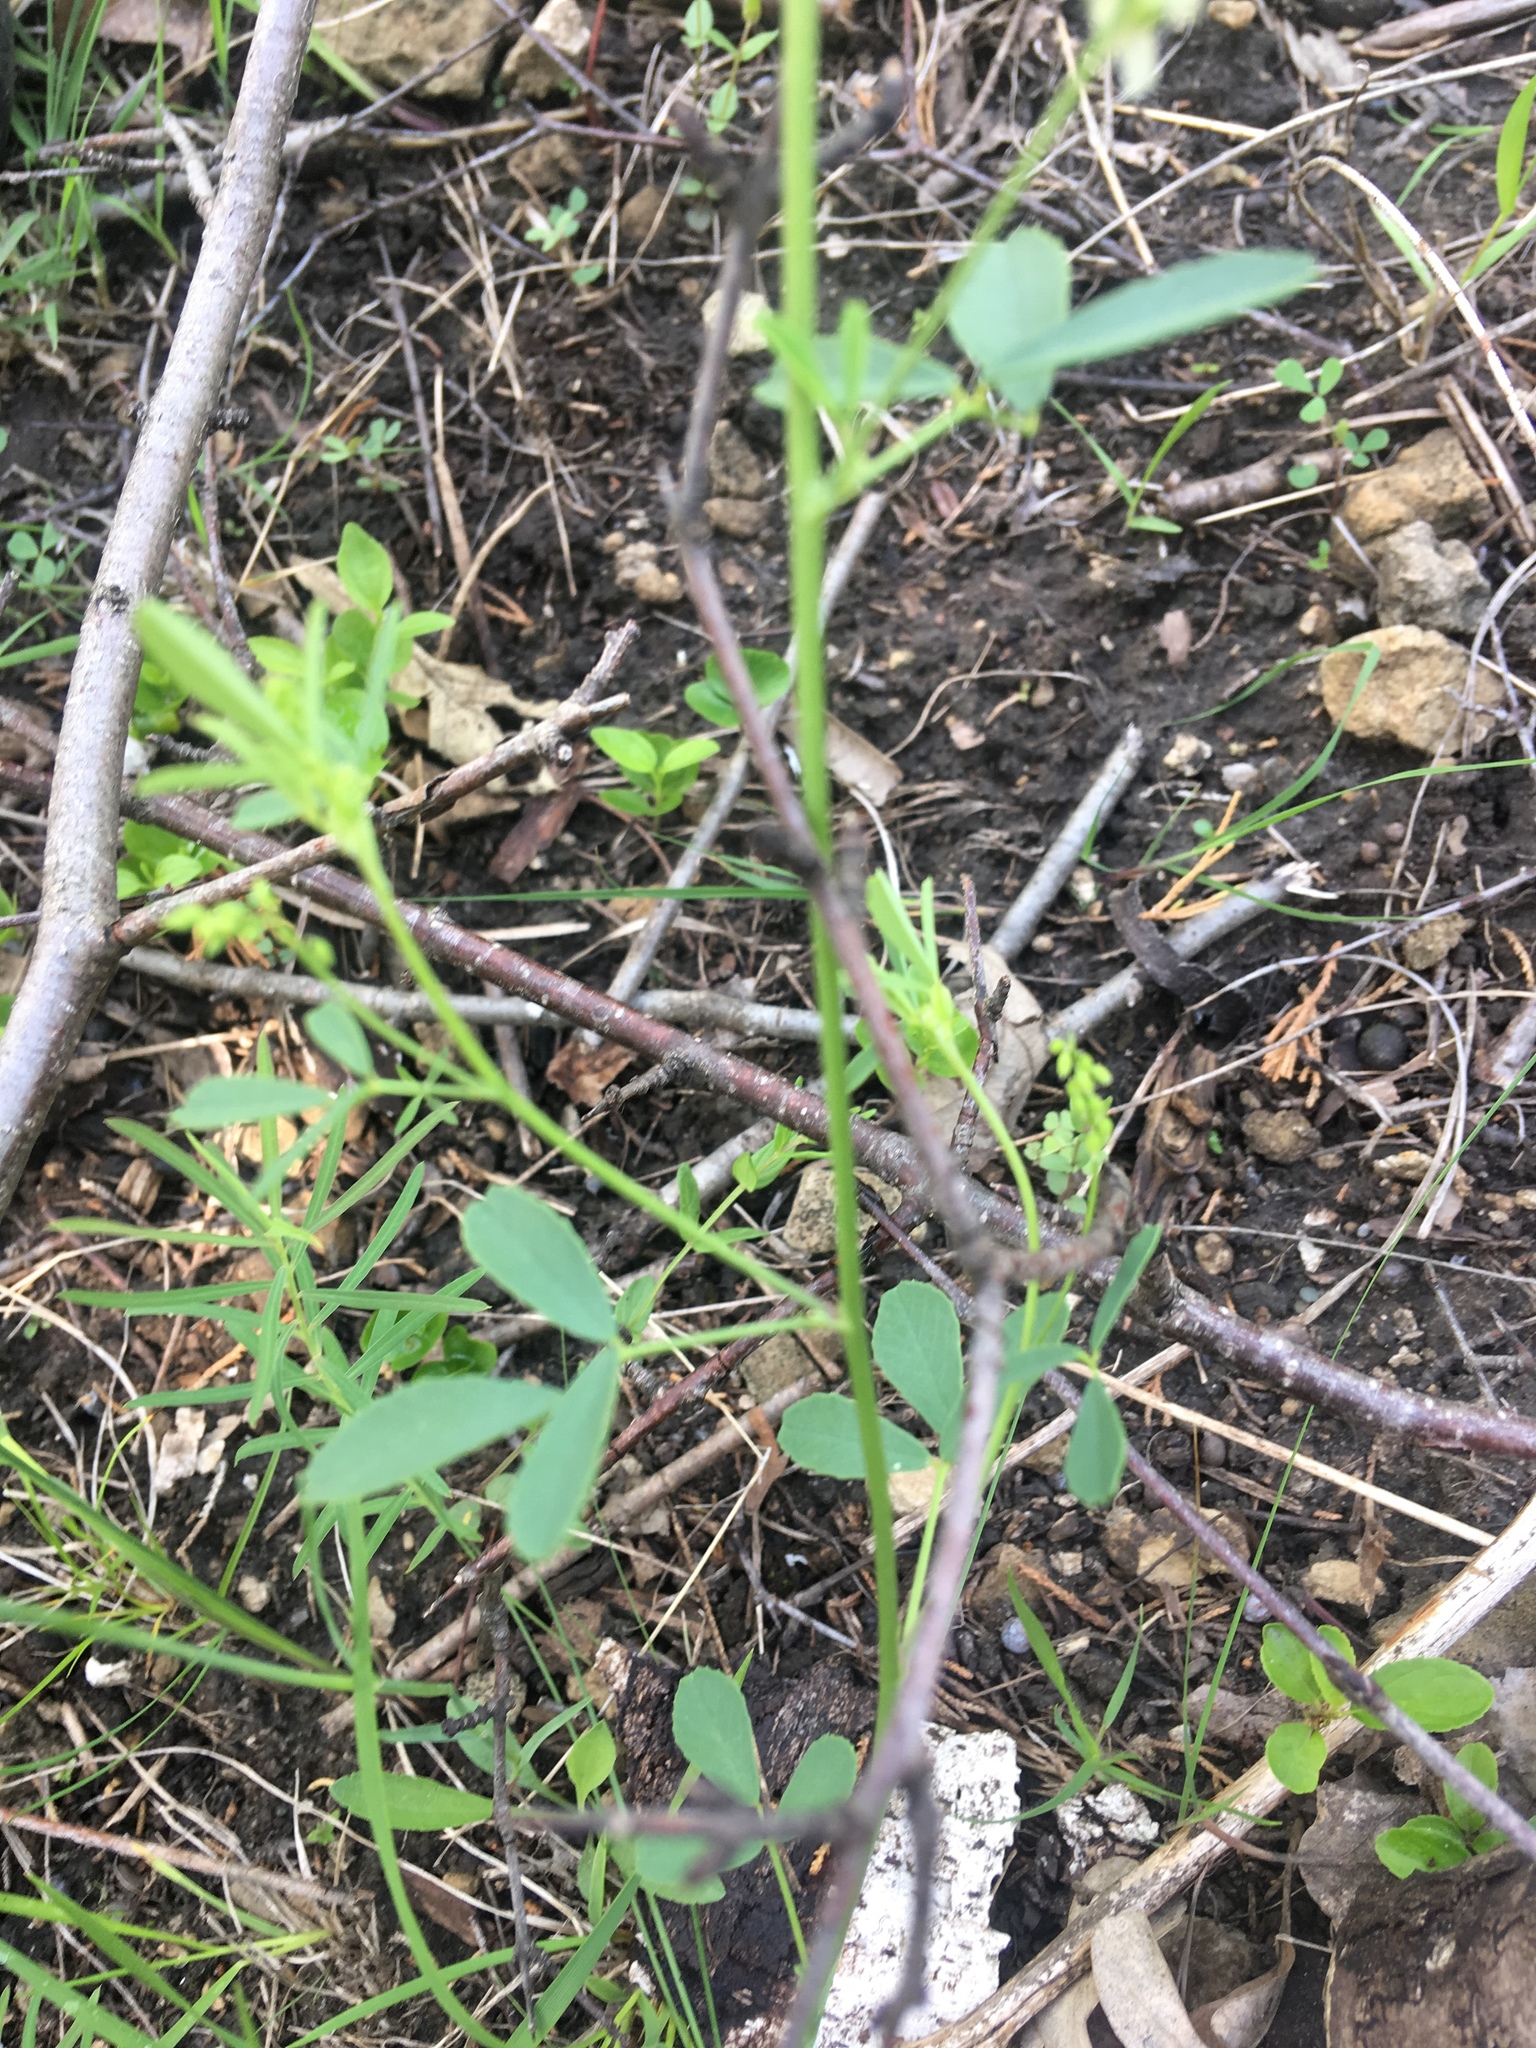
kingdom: Plantae
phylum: Tracheophyta
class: Magnoliopsida
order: Fabales
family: Fabaceae
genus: Melilotus
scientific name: Melilotus albus
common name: White melilot
